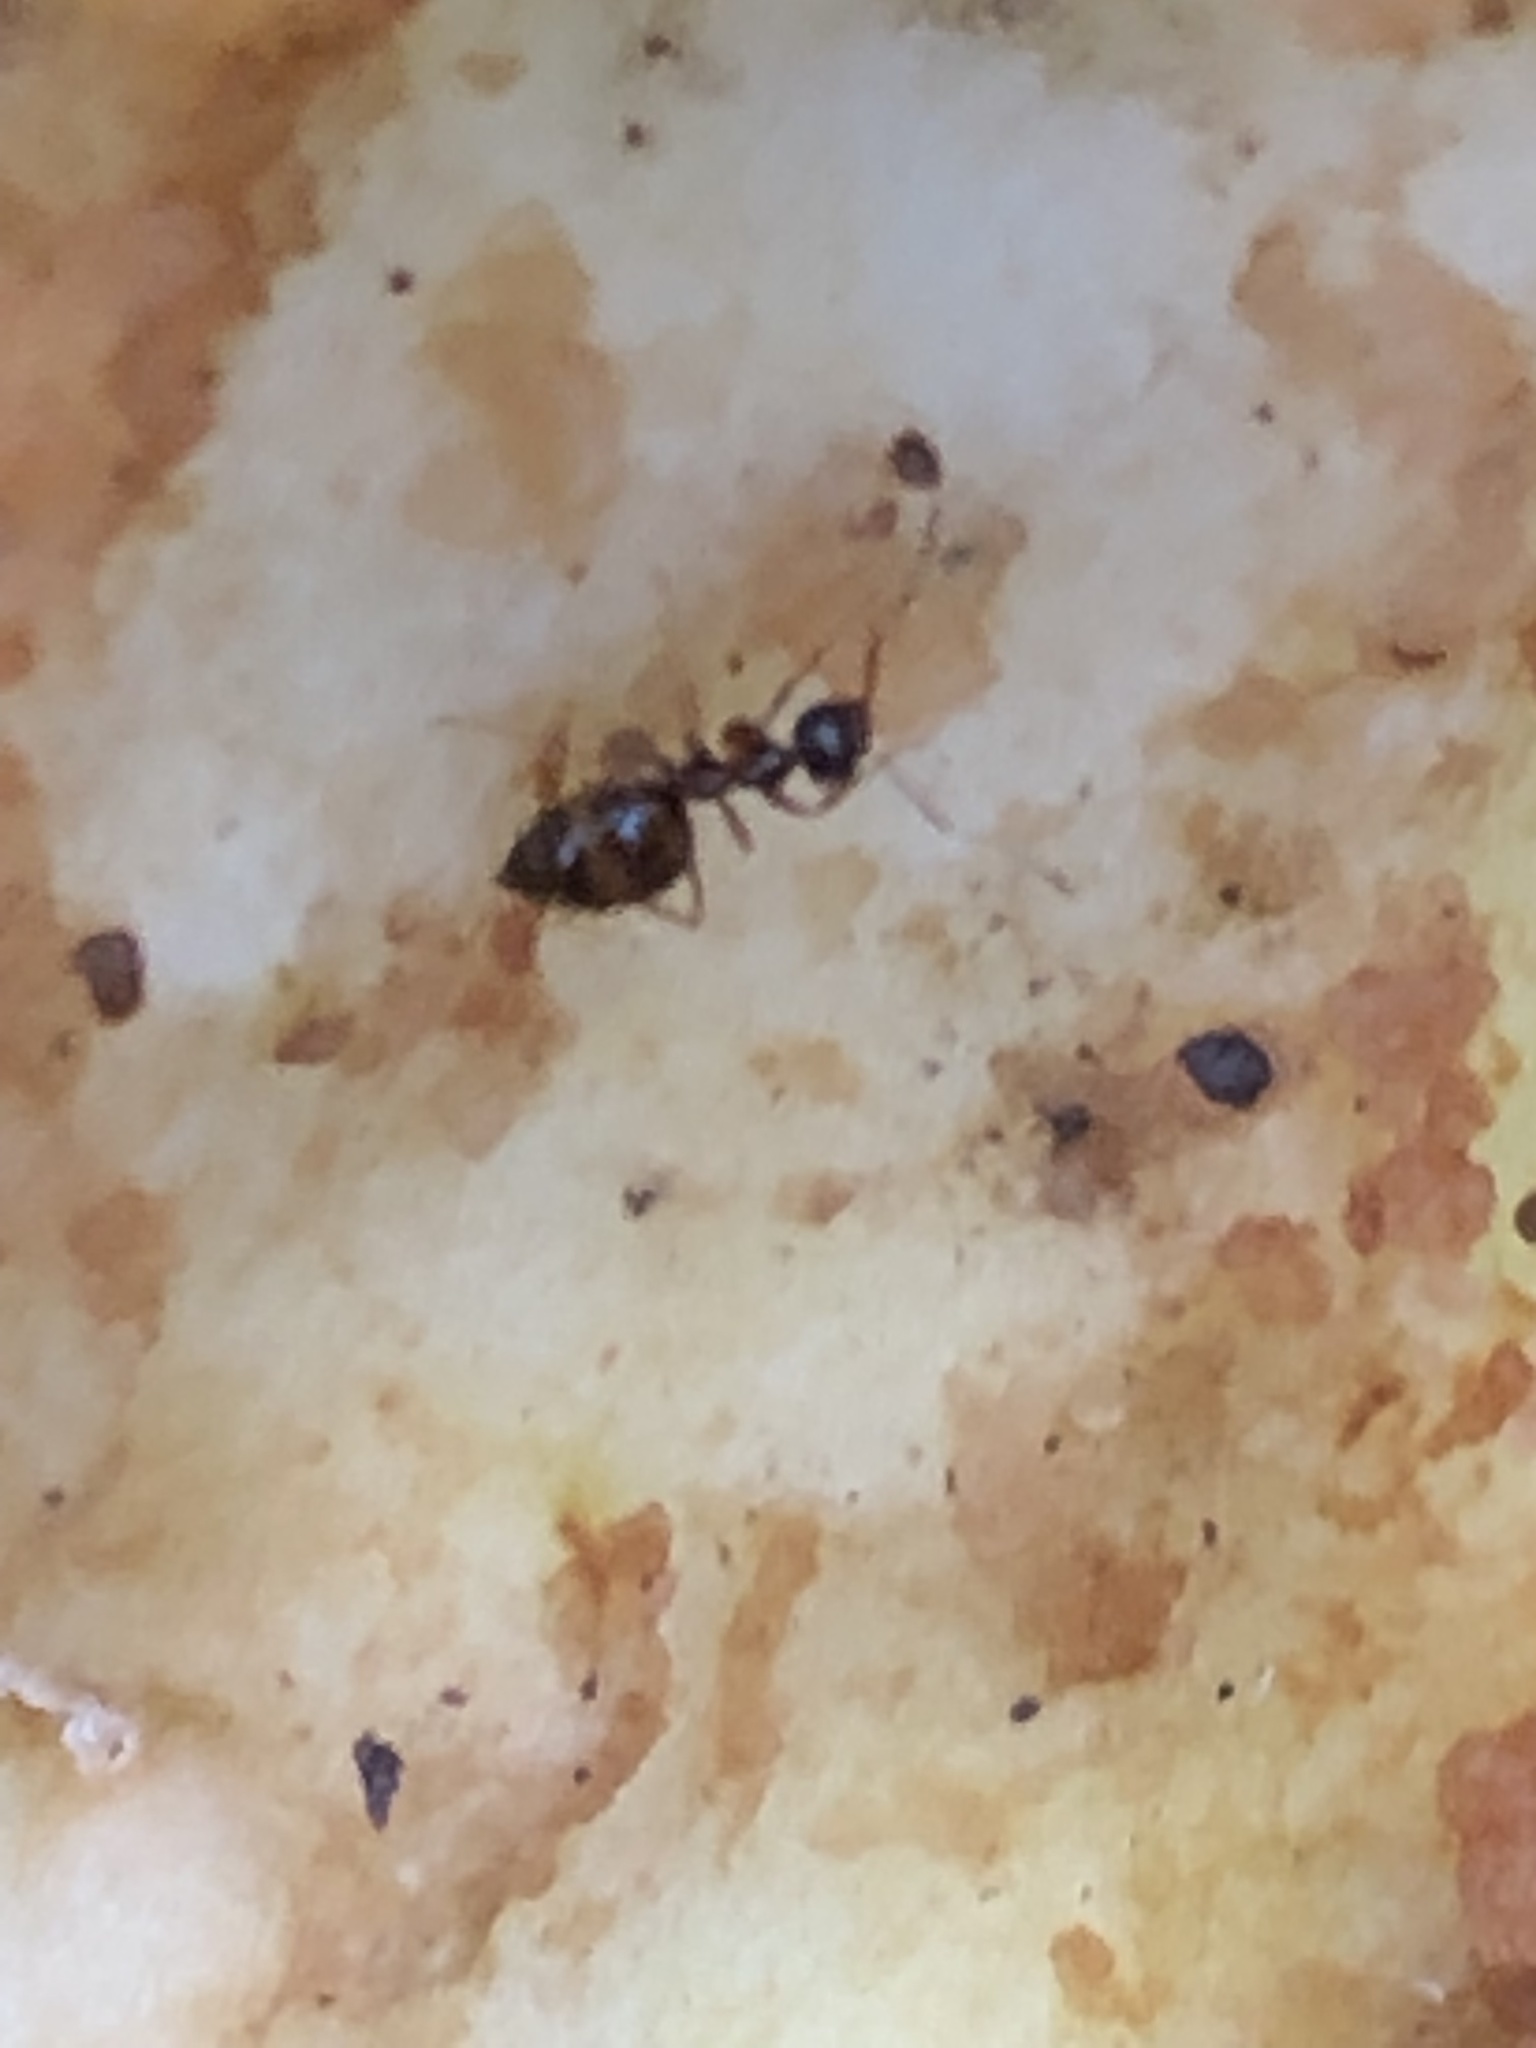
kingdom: Animalia
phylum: Arthropoda
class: Insecta
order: Hymenoptera
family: Formicidae
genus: Prenolepis
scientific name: Prenolepis imparis
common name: Small honey ant
